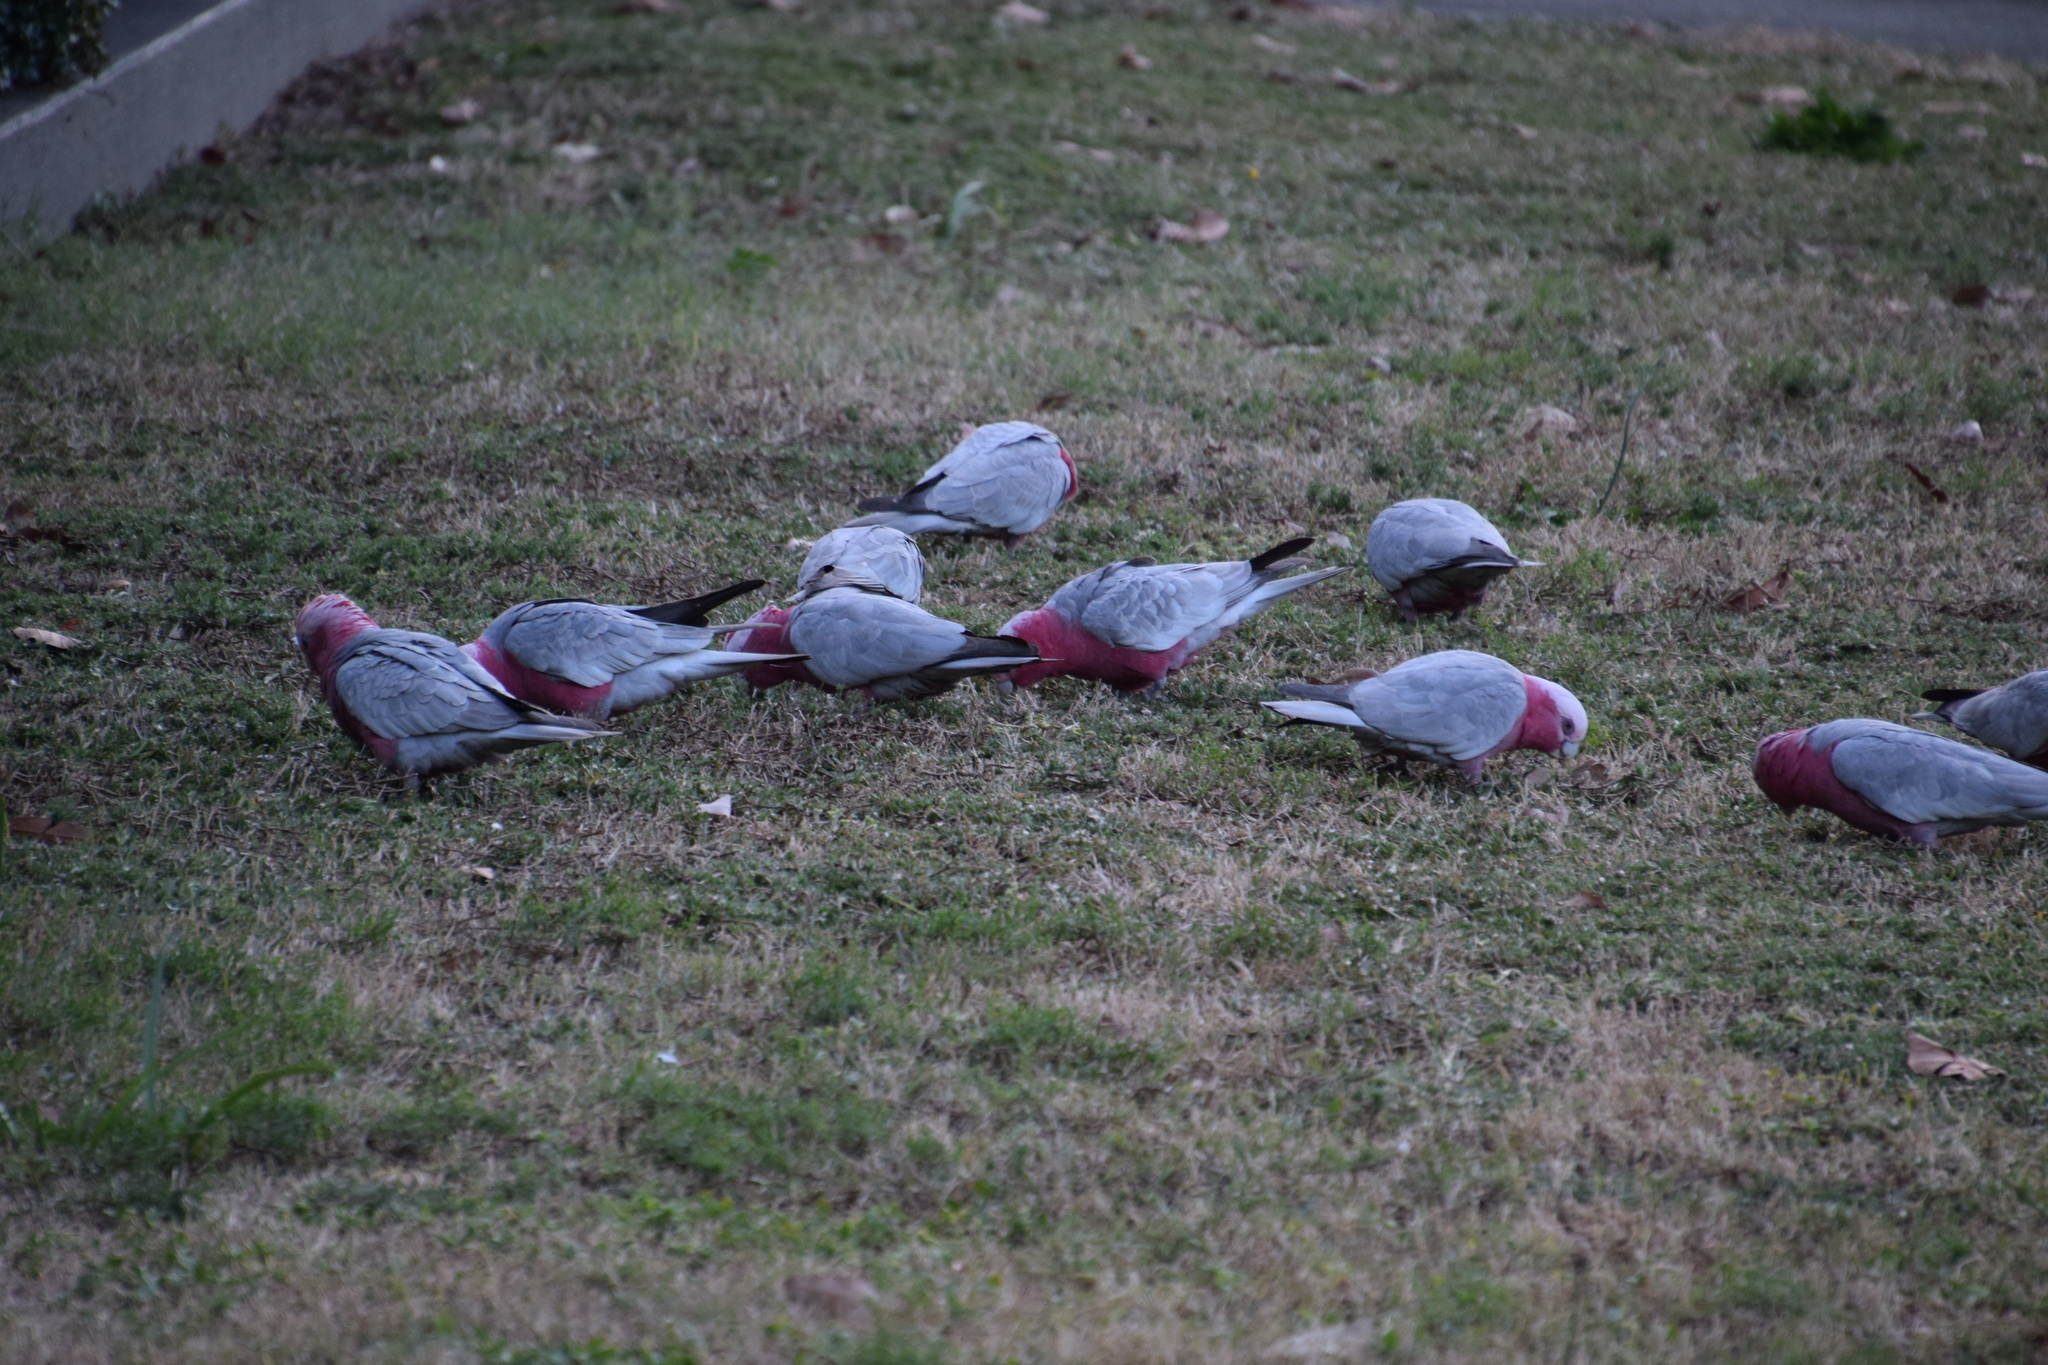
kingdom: Animalia
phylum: Chordata
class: Aves
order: Psittaciformes
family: Psittacidae
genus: Eolophus
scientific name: Eolophus roseicapilla
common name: Galah
